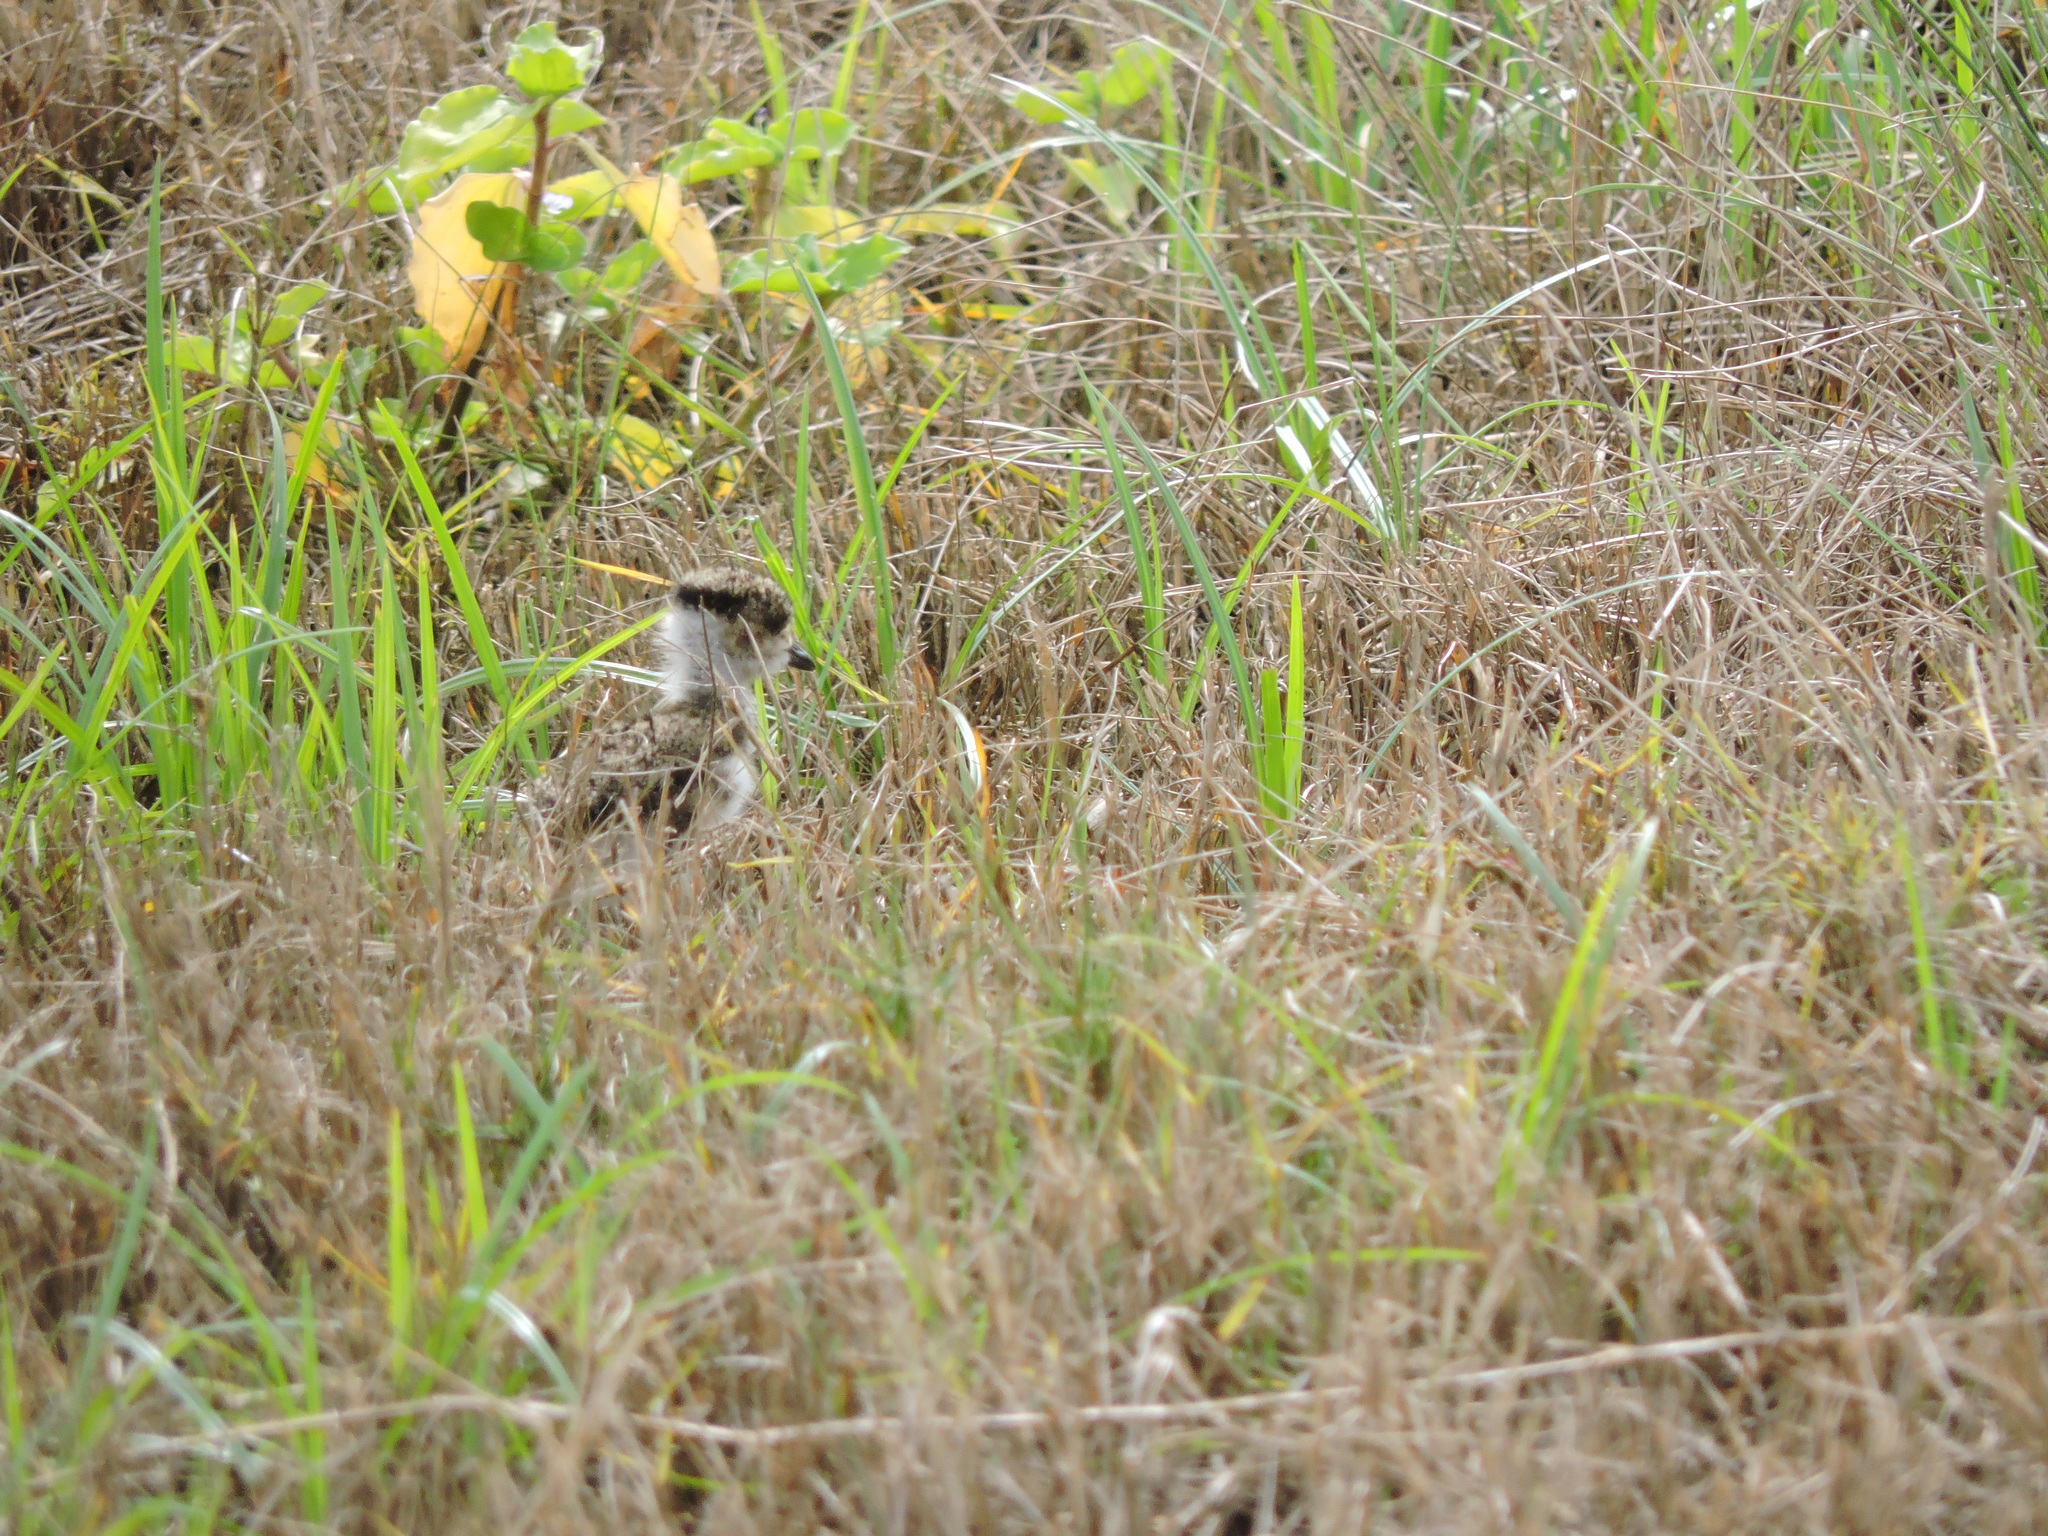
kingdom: Animalia
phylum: Chordata
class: Aves
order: Charadriiformes
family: Charadriidae
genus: Vanellus
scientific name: Vanellus chilensis
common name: Southern lapwing
